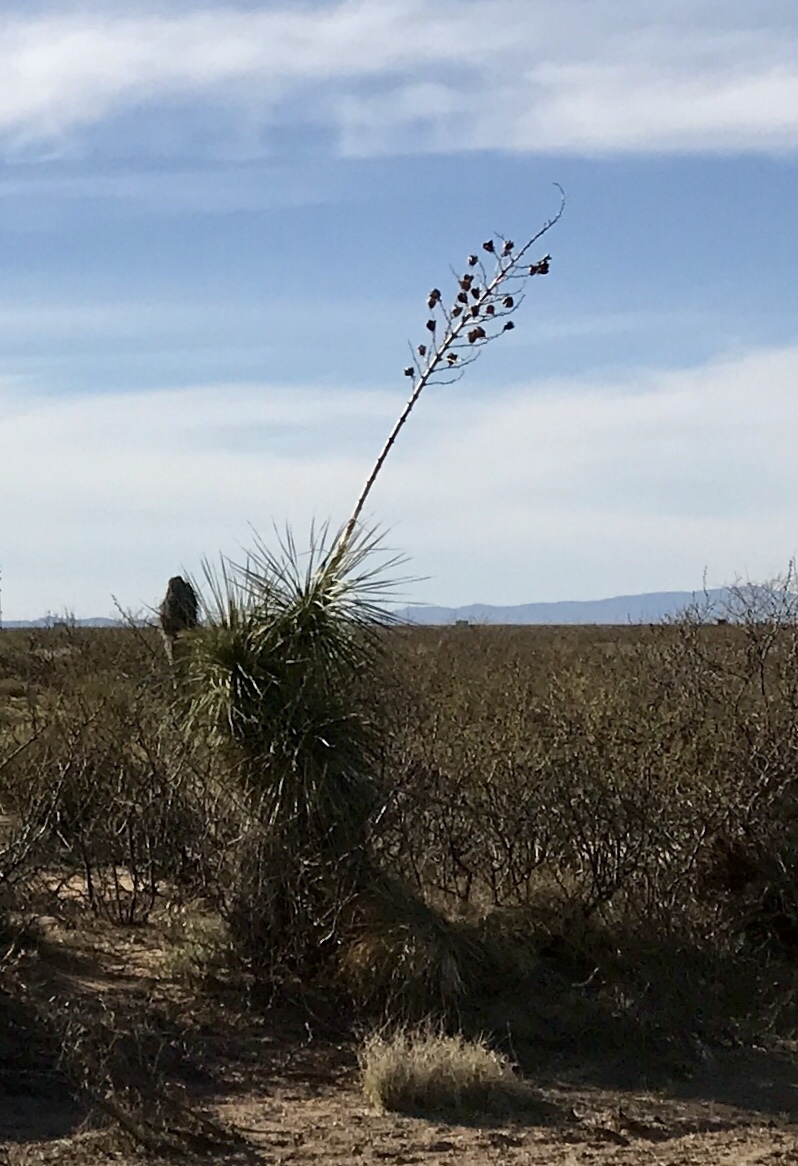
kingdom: Plantae
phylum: Tracheophyta
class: Liliopsida
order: Asparagales
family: Asparagaceae
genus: Yucca
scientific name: Yucca elata
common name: Palmella
